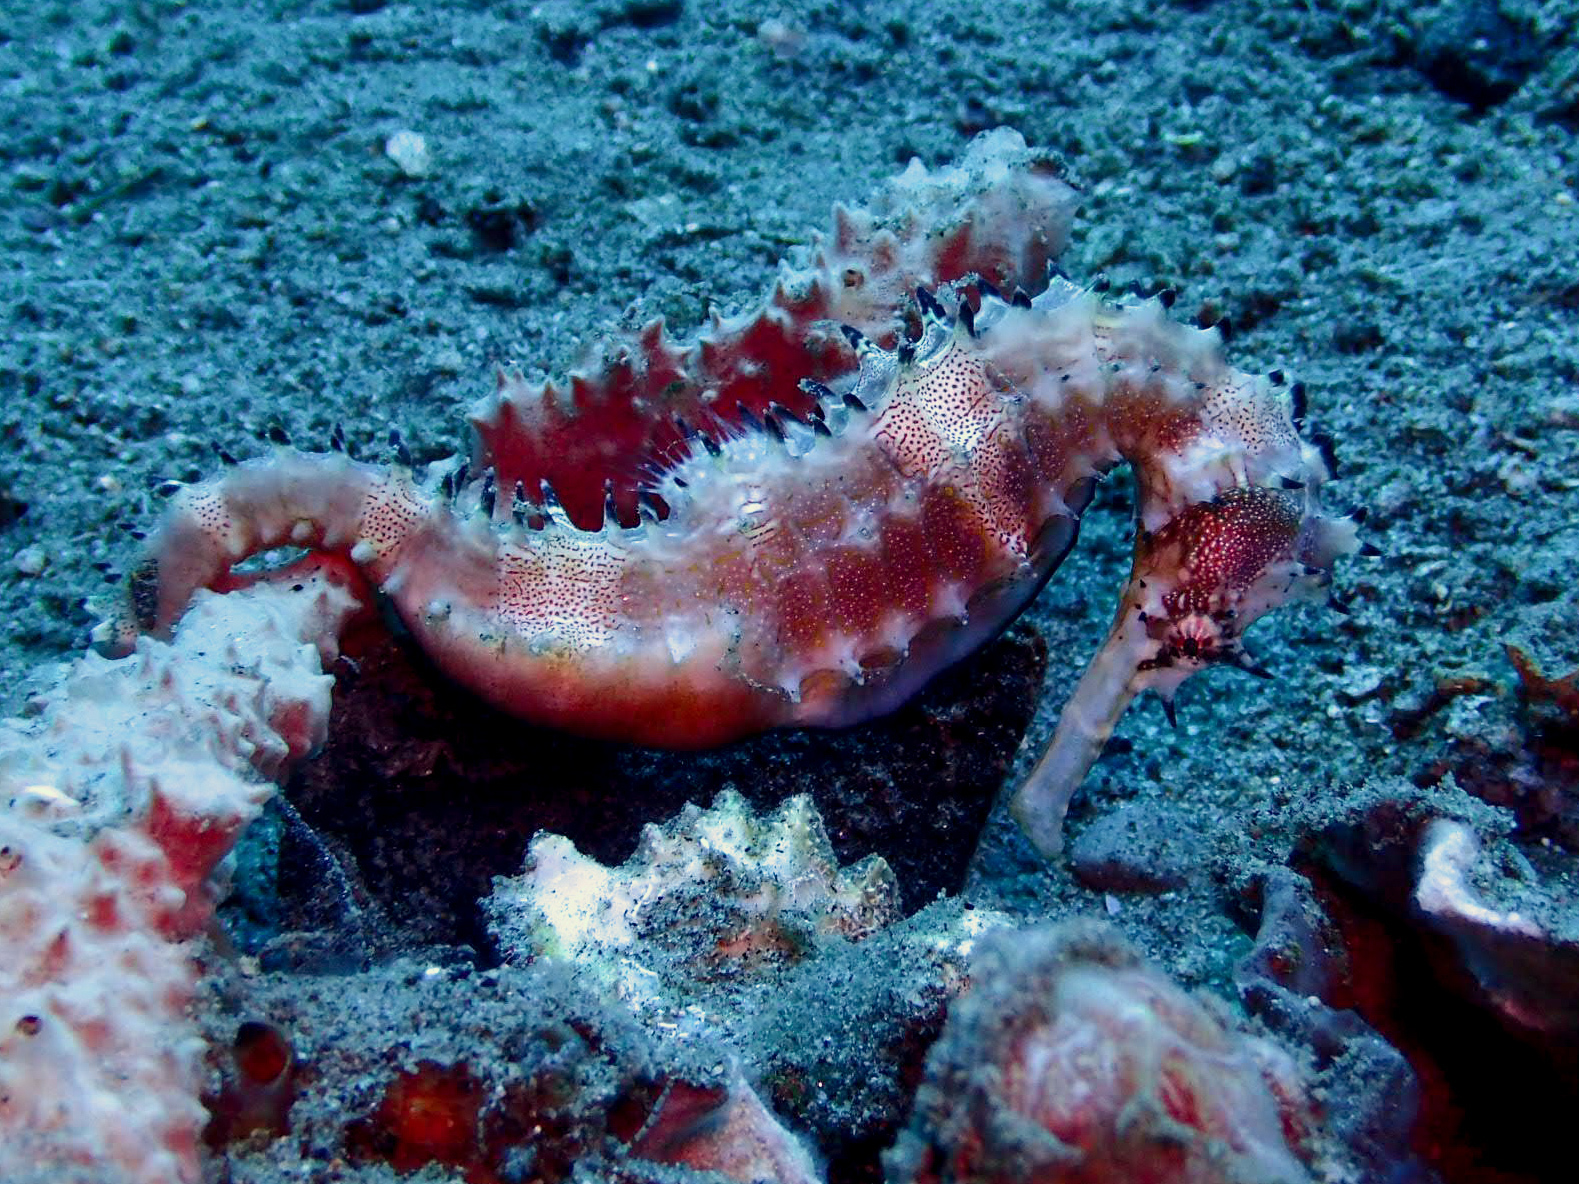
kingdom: Animalia
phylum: Chordata
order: Syngnathiformes
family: Syngnathidae
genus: Hippocampus
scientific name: Hippocampus histrix
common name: Longspine seahorse
